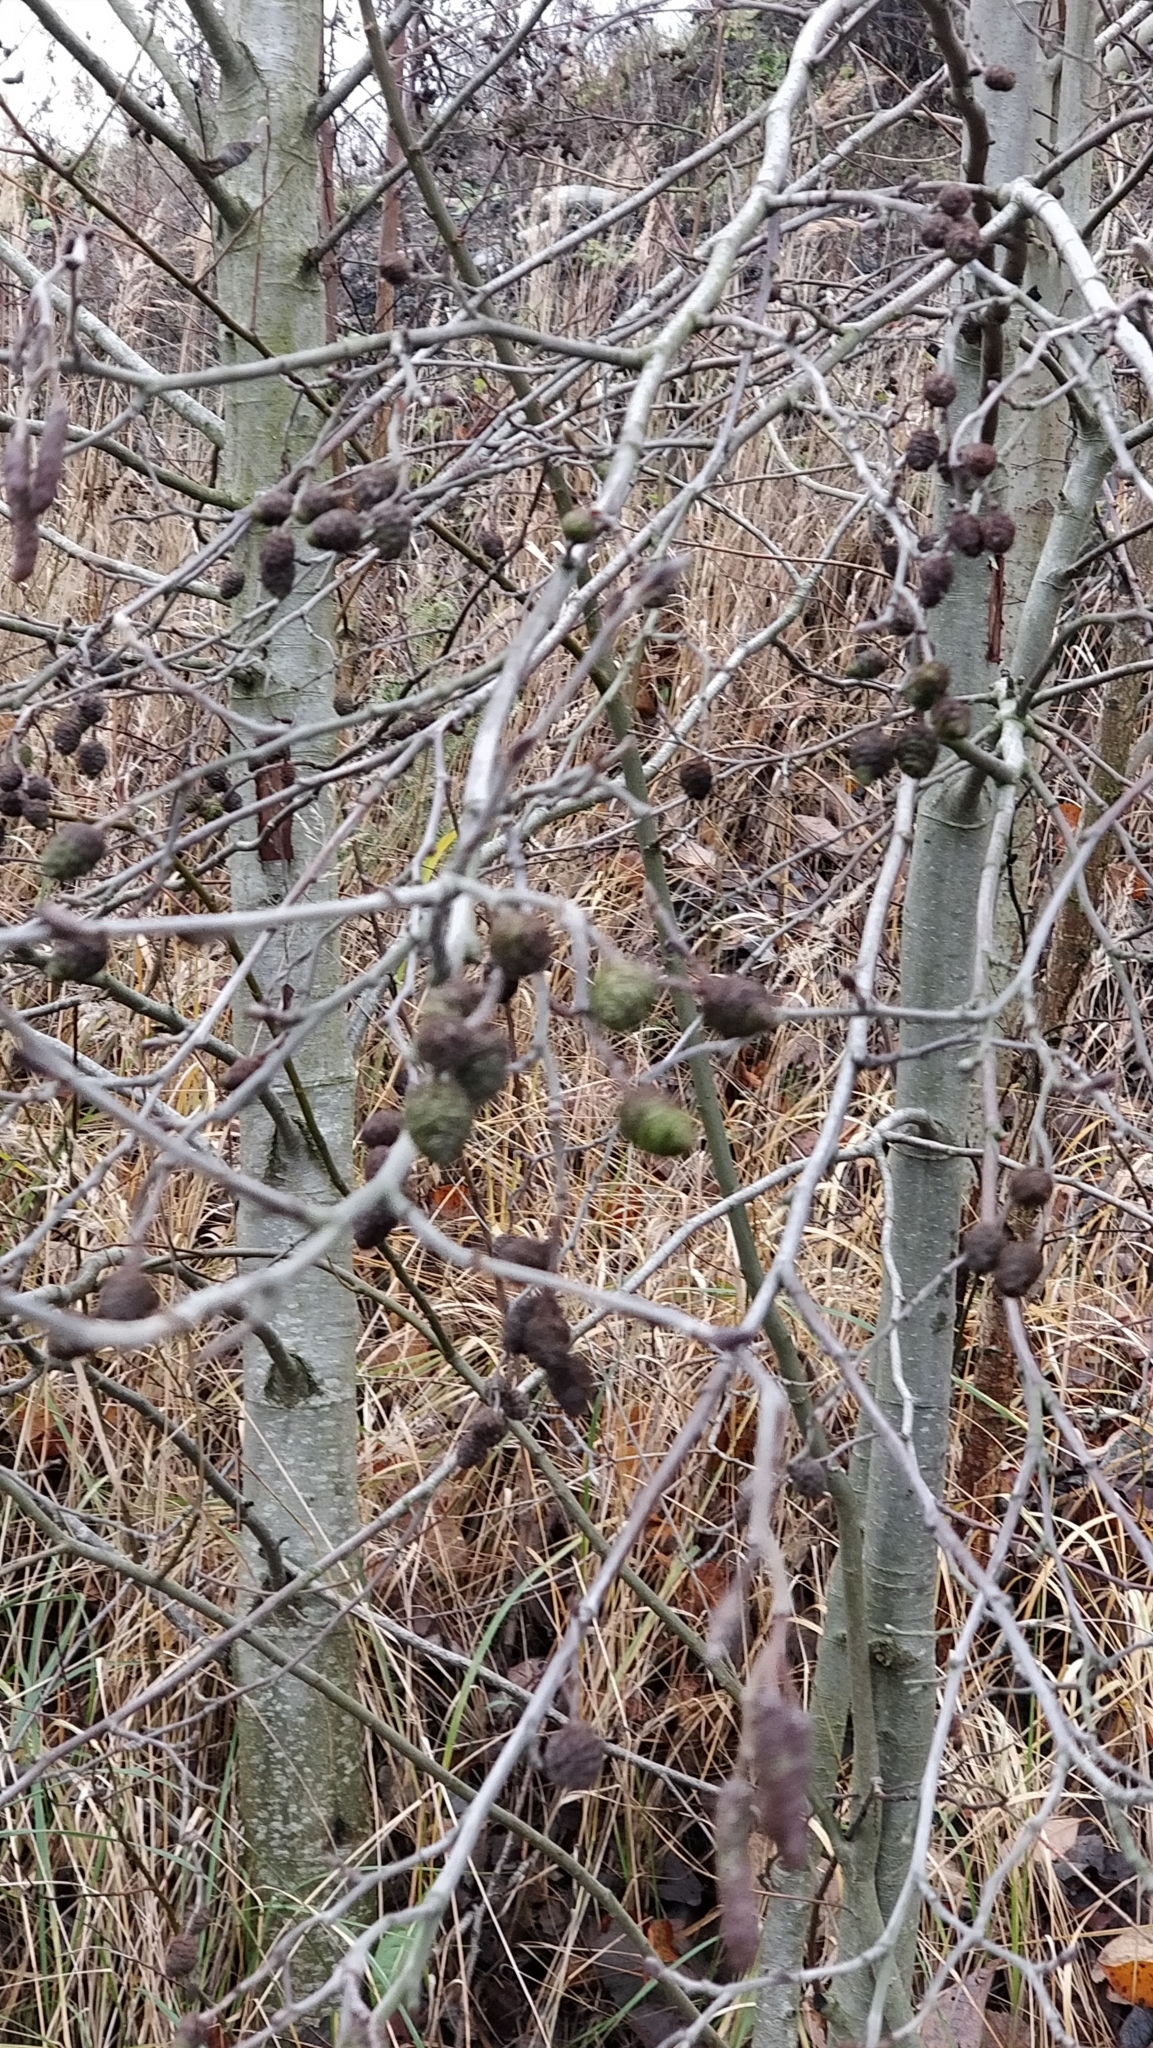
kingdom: Plantae
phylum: Tracheophyta
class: Magnoliopsida
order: Fagales
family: Betulaceae
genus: Alnus
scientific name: Alnus glutinosa
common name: Black alder
